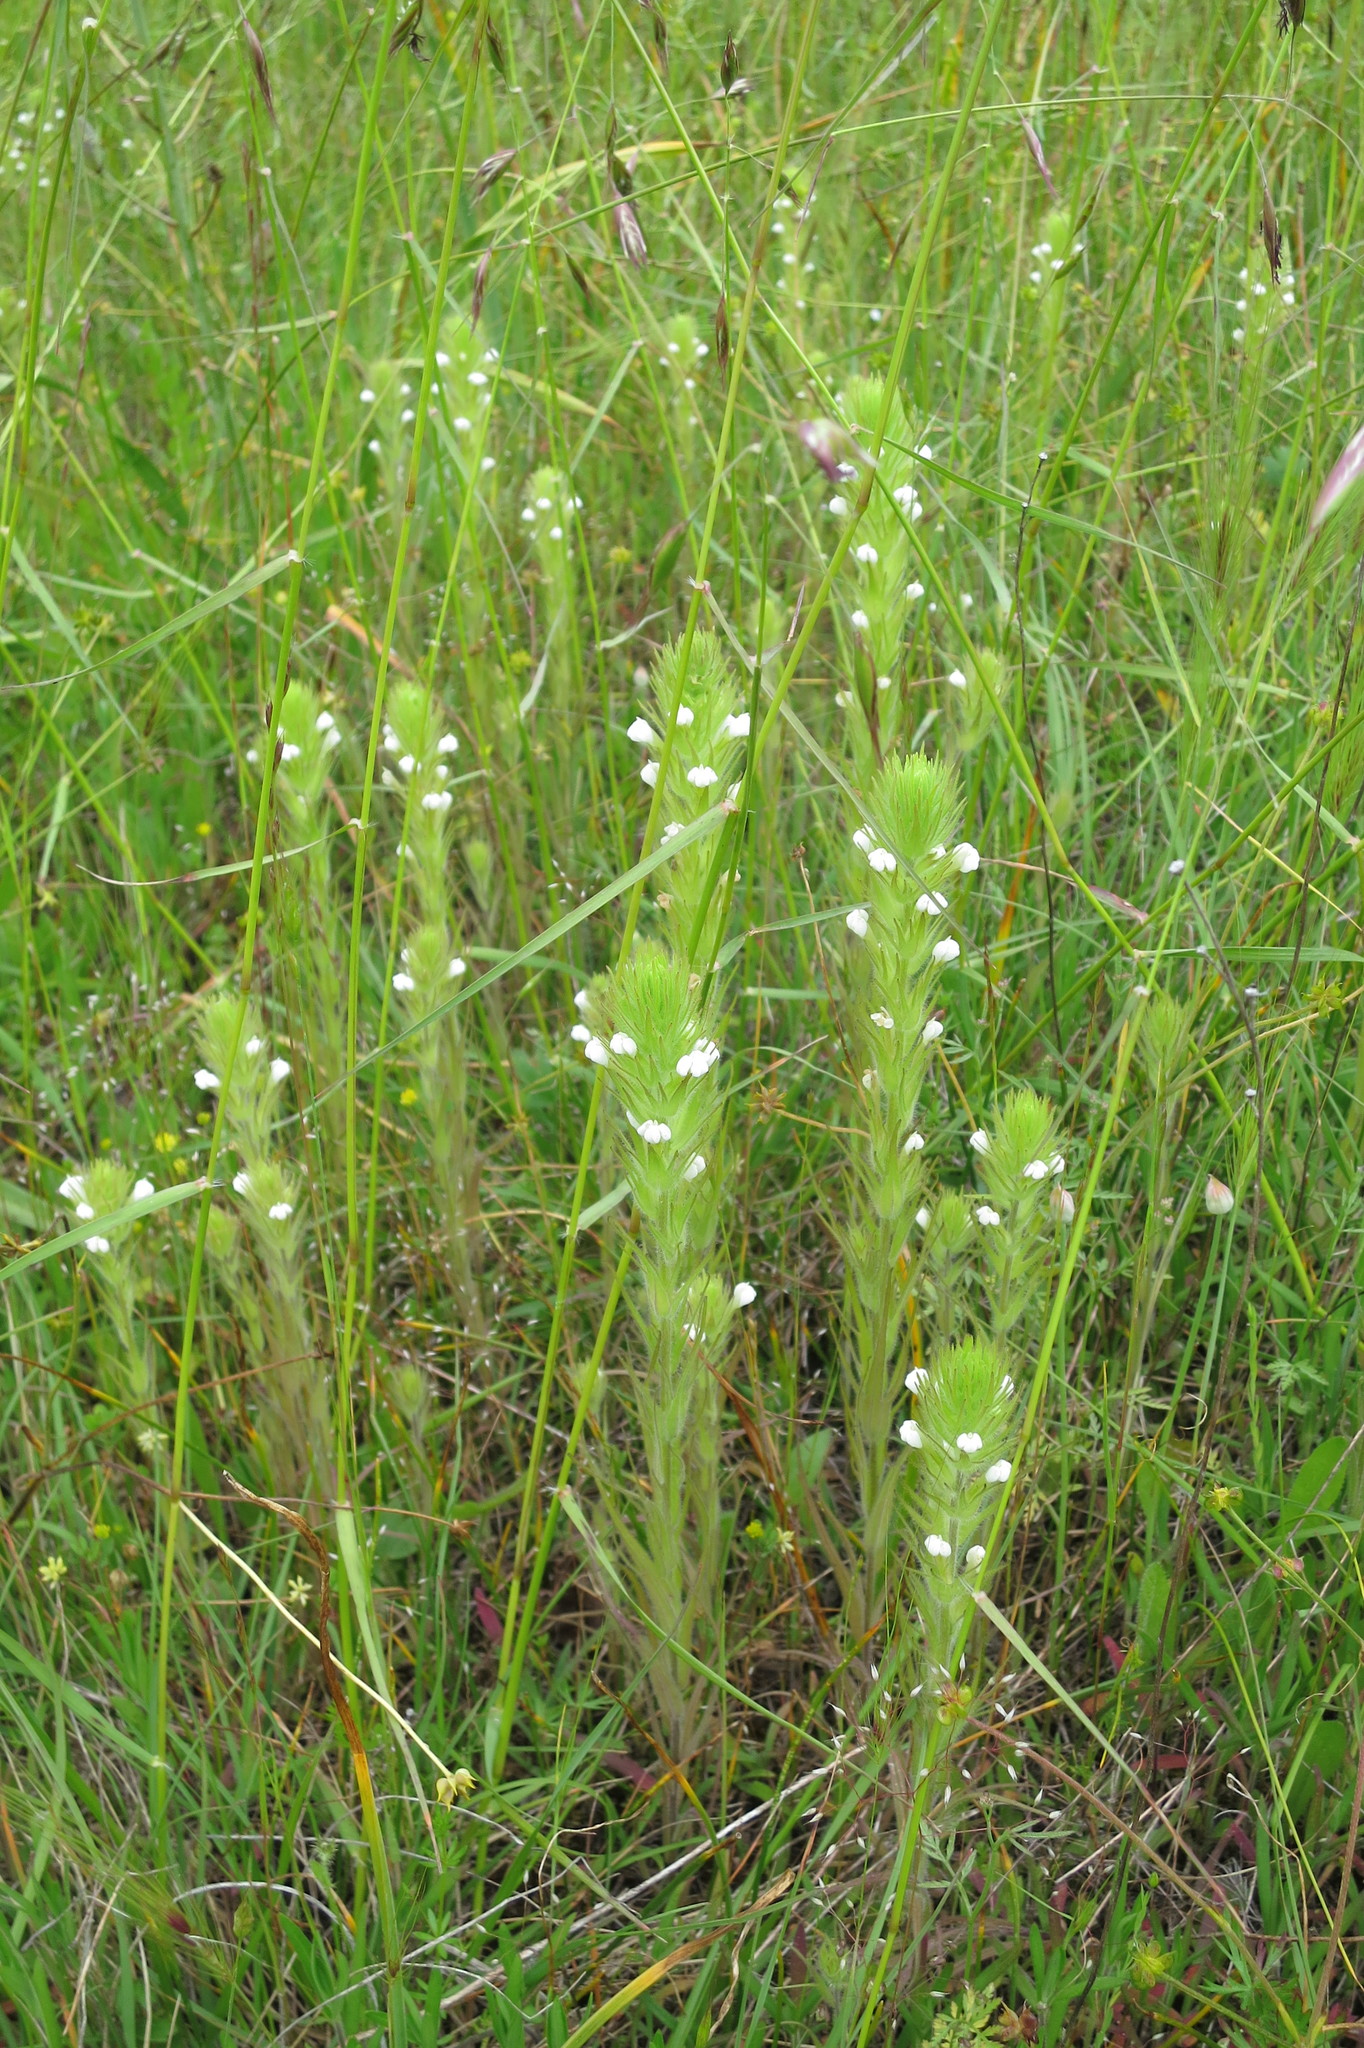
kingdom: Plantae
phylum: Tracheophyta
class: Magnoliopsida
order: Lamiales
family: Orobanchaceae
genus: Castilleja
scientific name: Castilleja tenuis
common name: Hairy indian paintbrush
